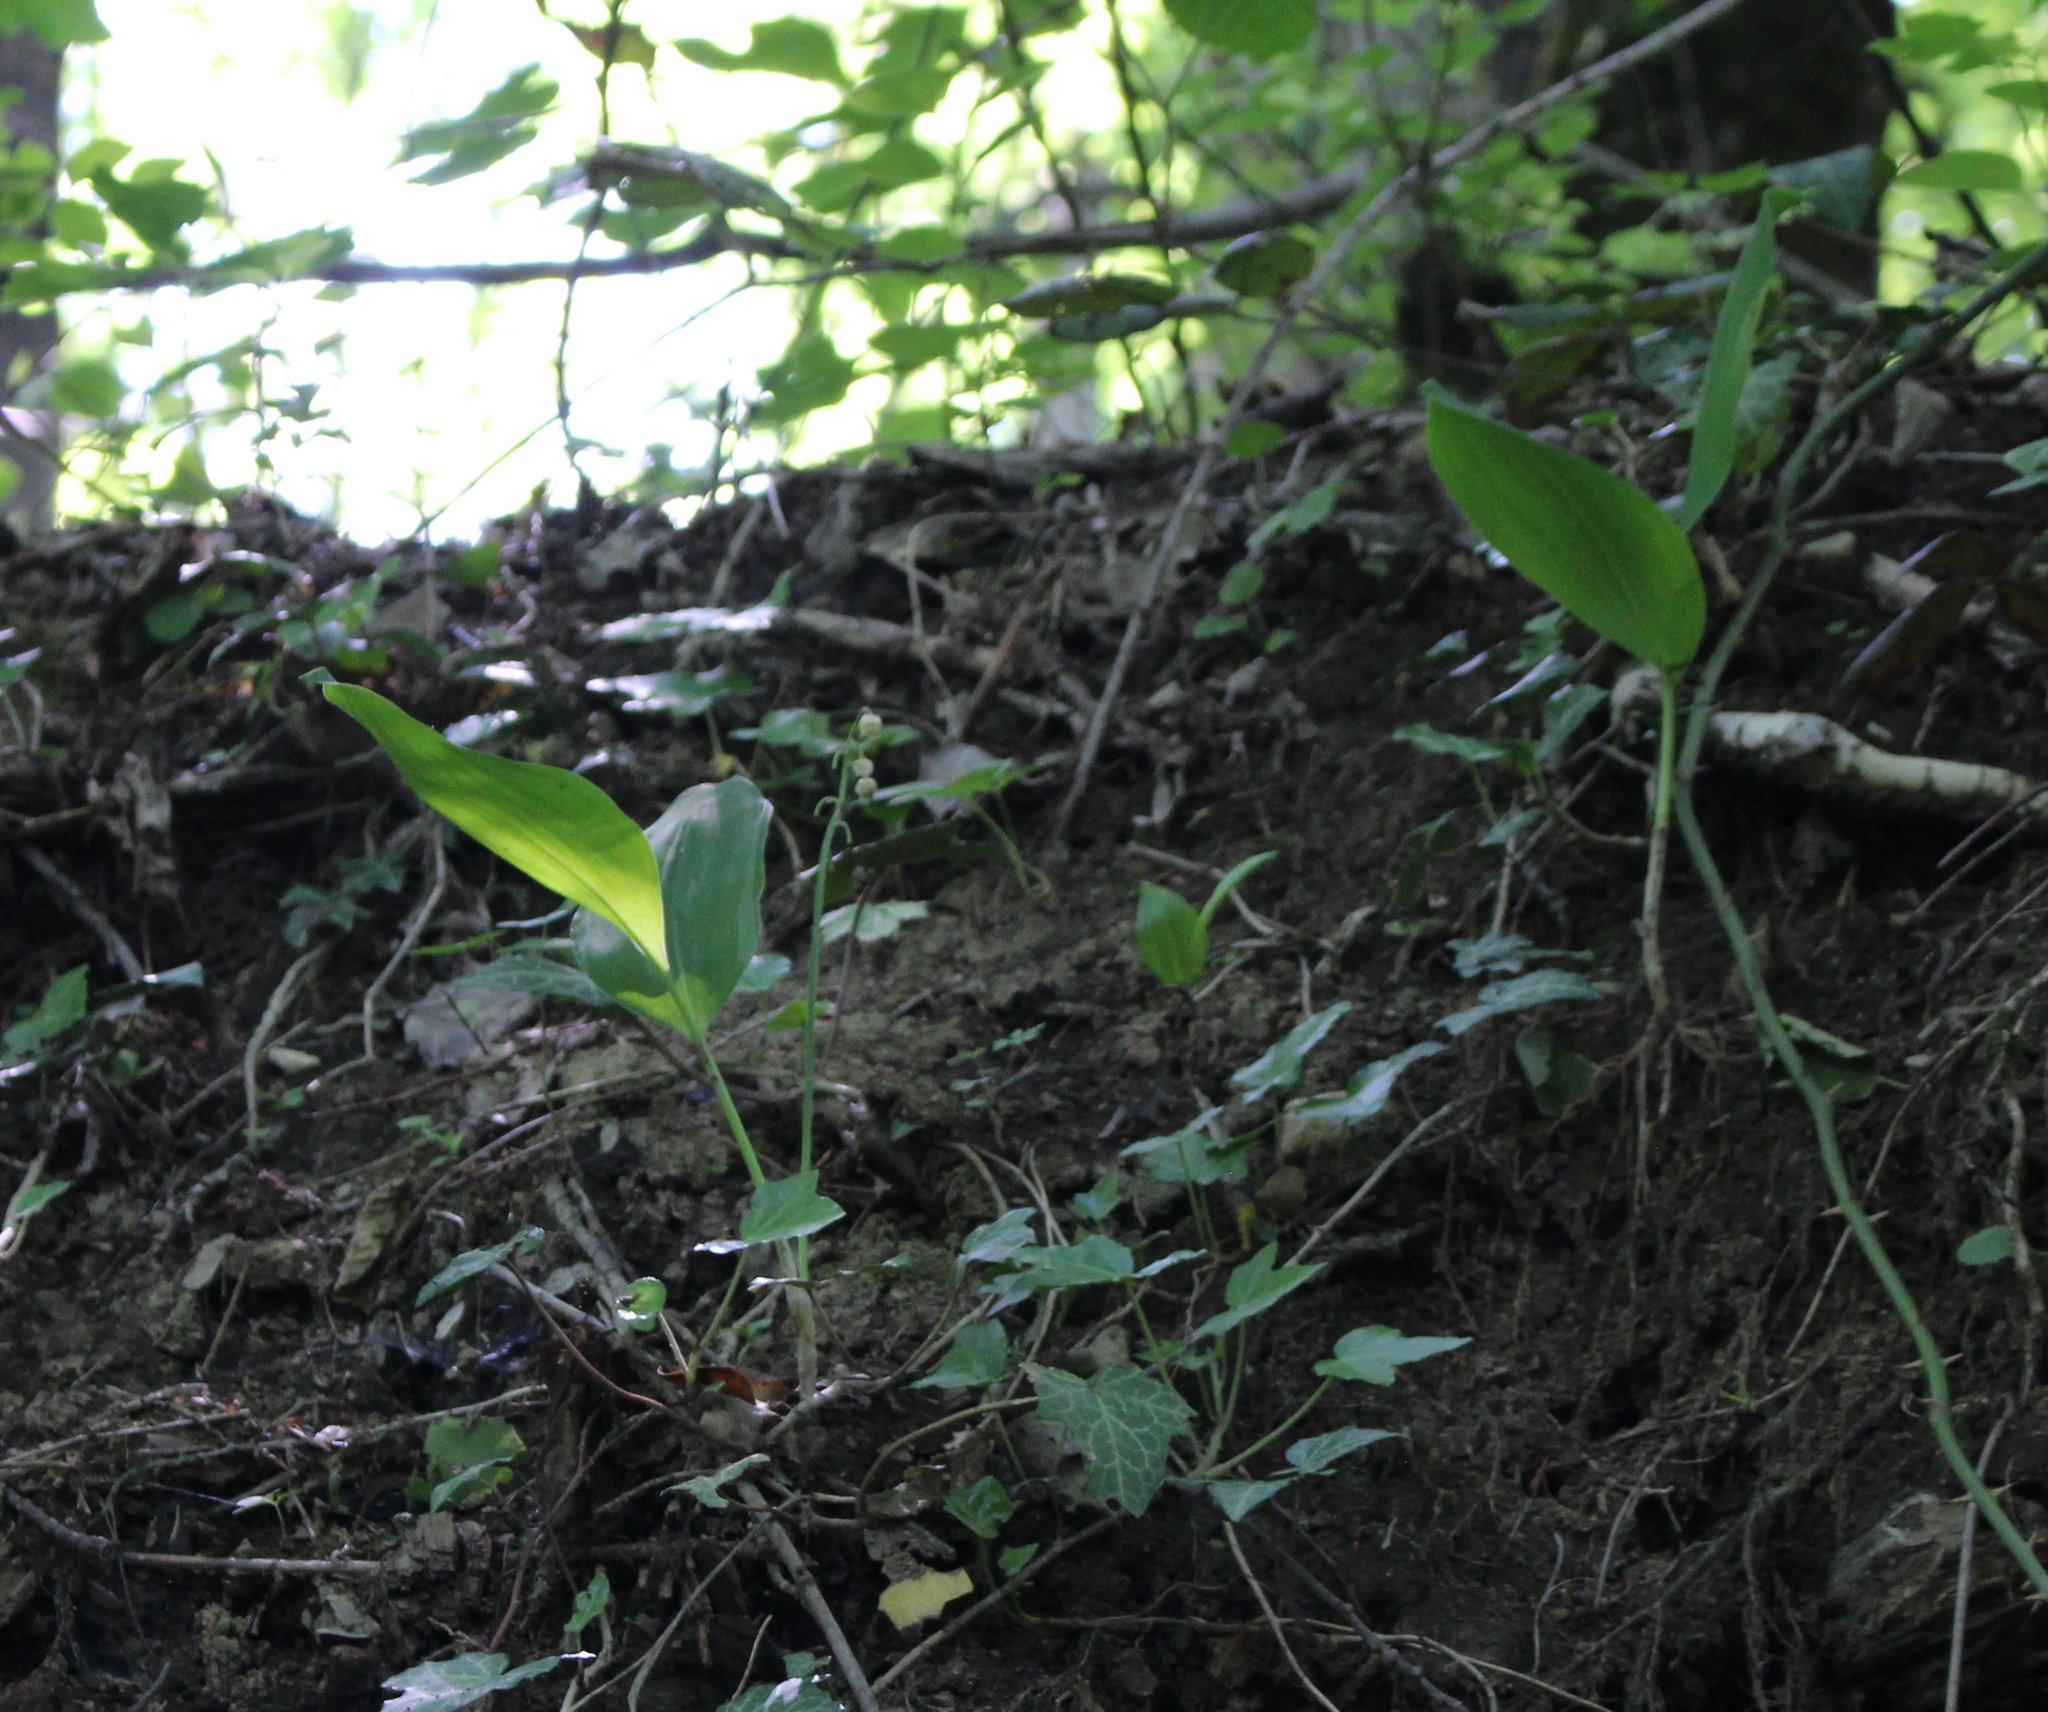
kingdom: Plantae
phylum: Tracheophyta
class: Liliopsida
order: Asparagales
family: Asparagaceae
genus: Convallaria
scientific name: Convallaria majalis
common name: Lily-of-the-valley
